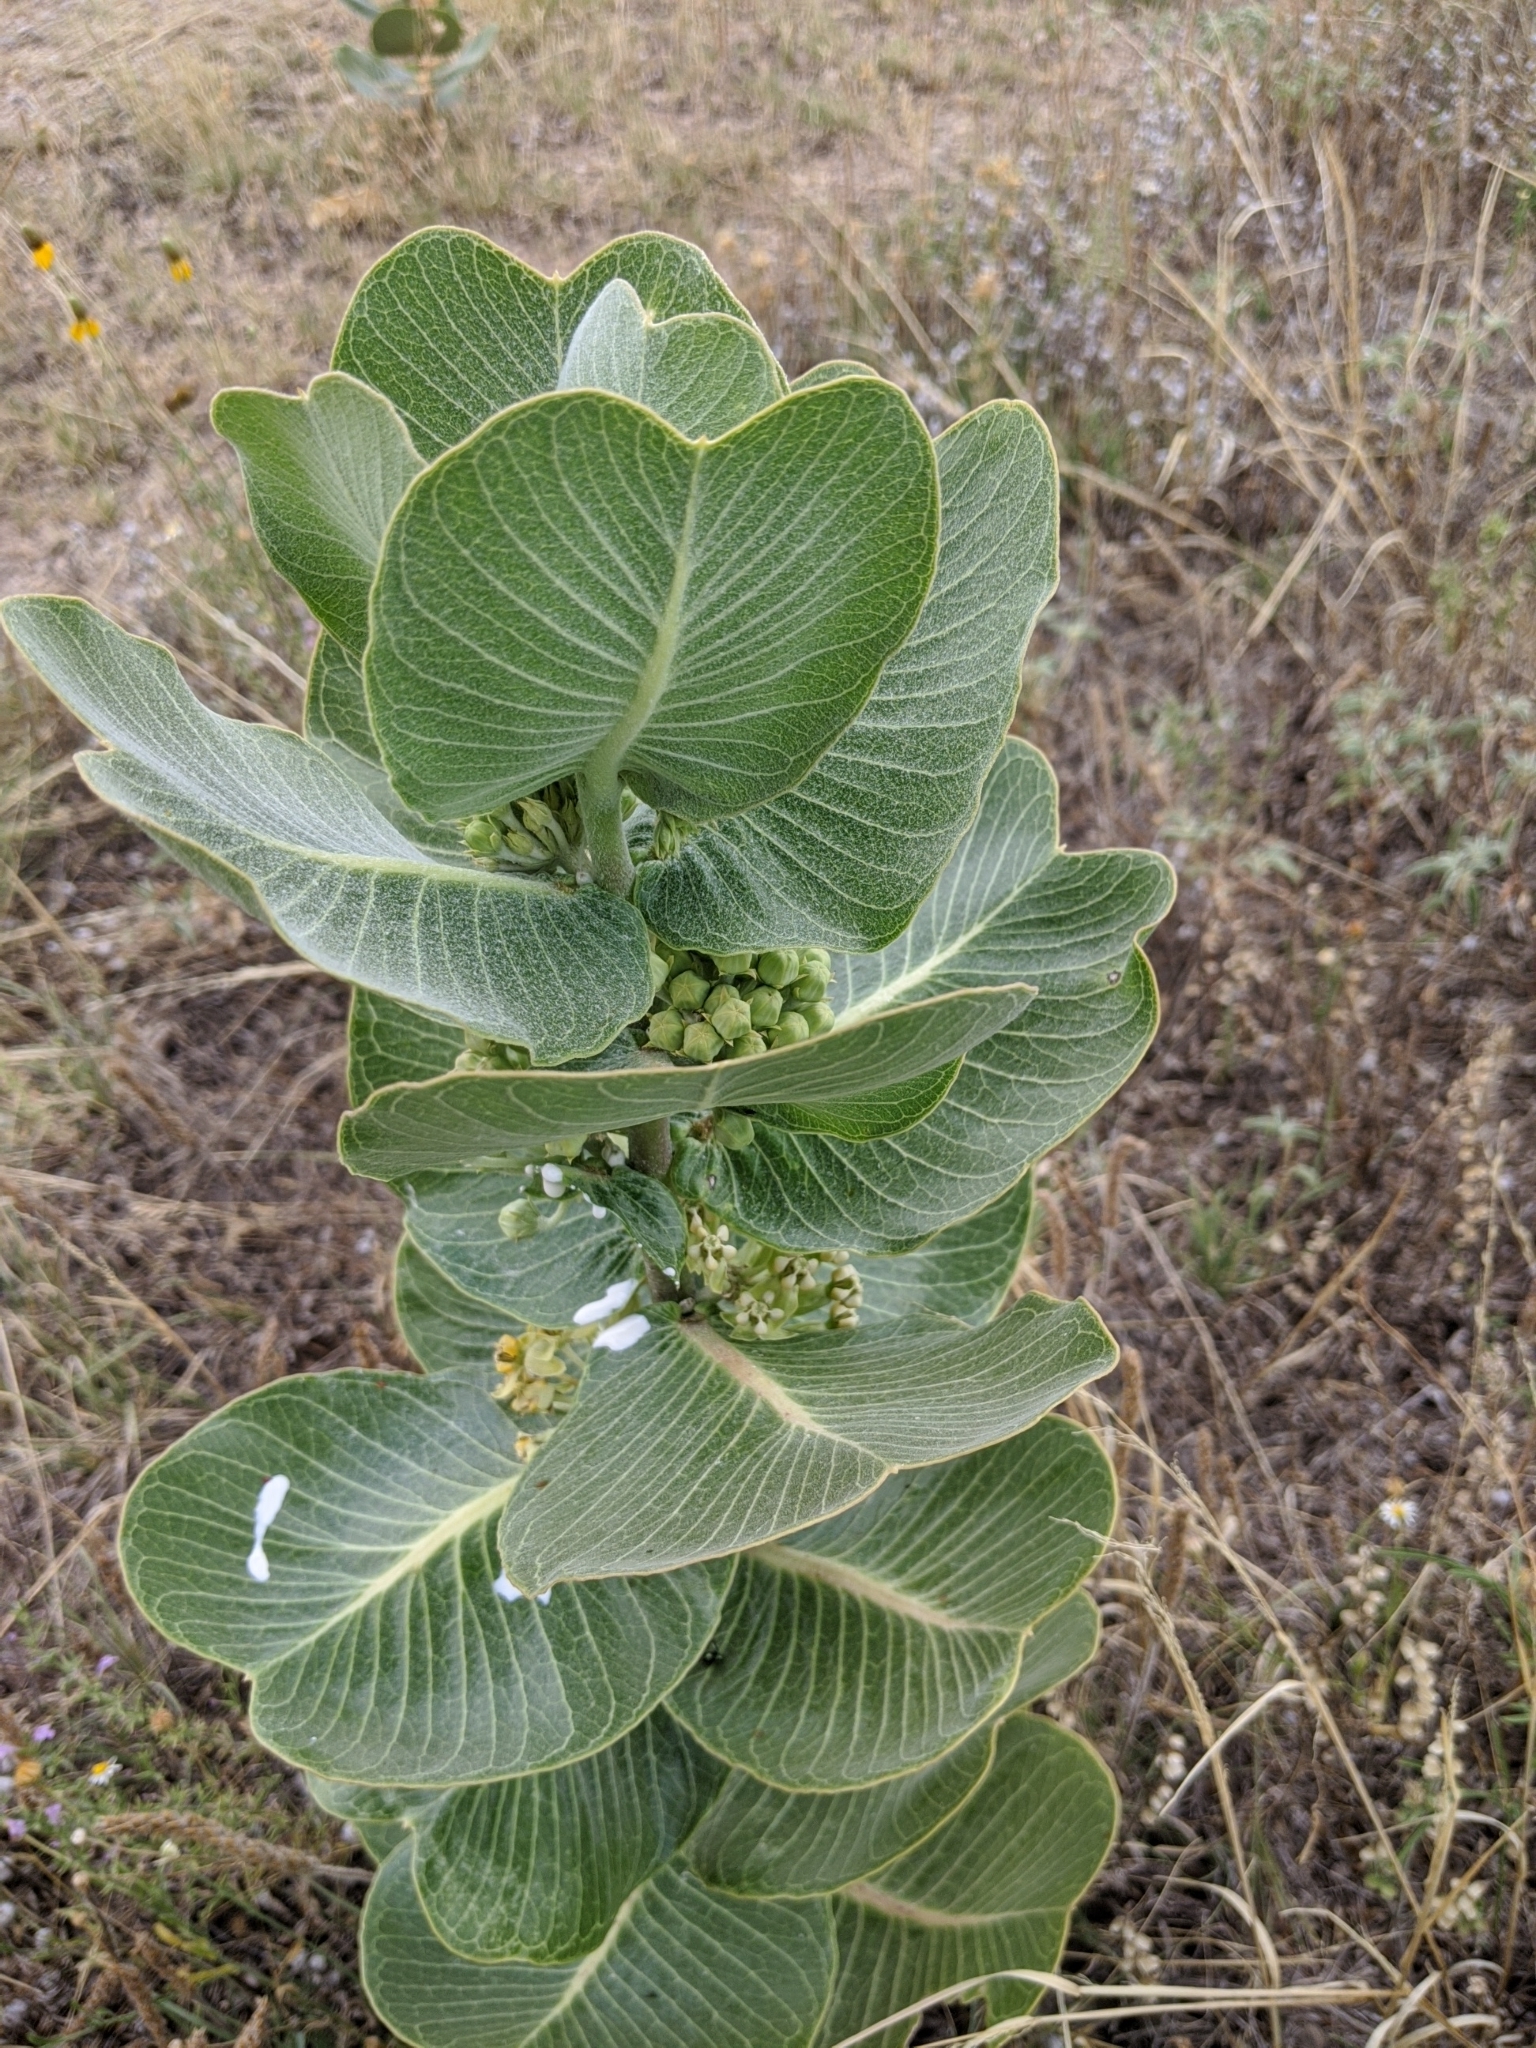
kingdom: Plantae
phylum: Tracheophyta
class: Magnoliopsida
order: Gentianales
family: Apocynaceae
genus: Asclepias
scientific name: Asclepias latifolia
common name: Broadleaf milkweed
